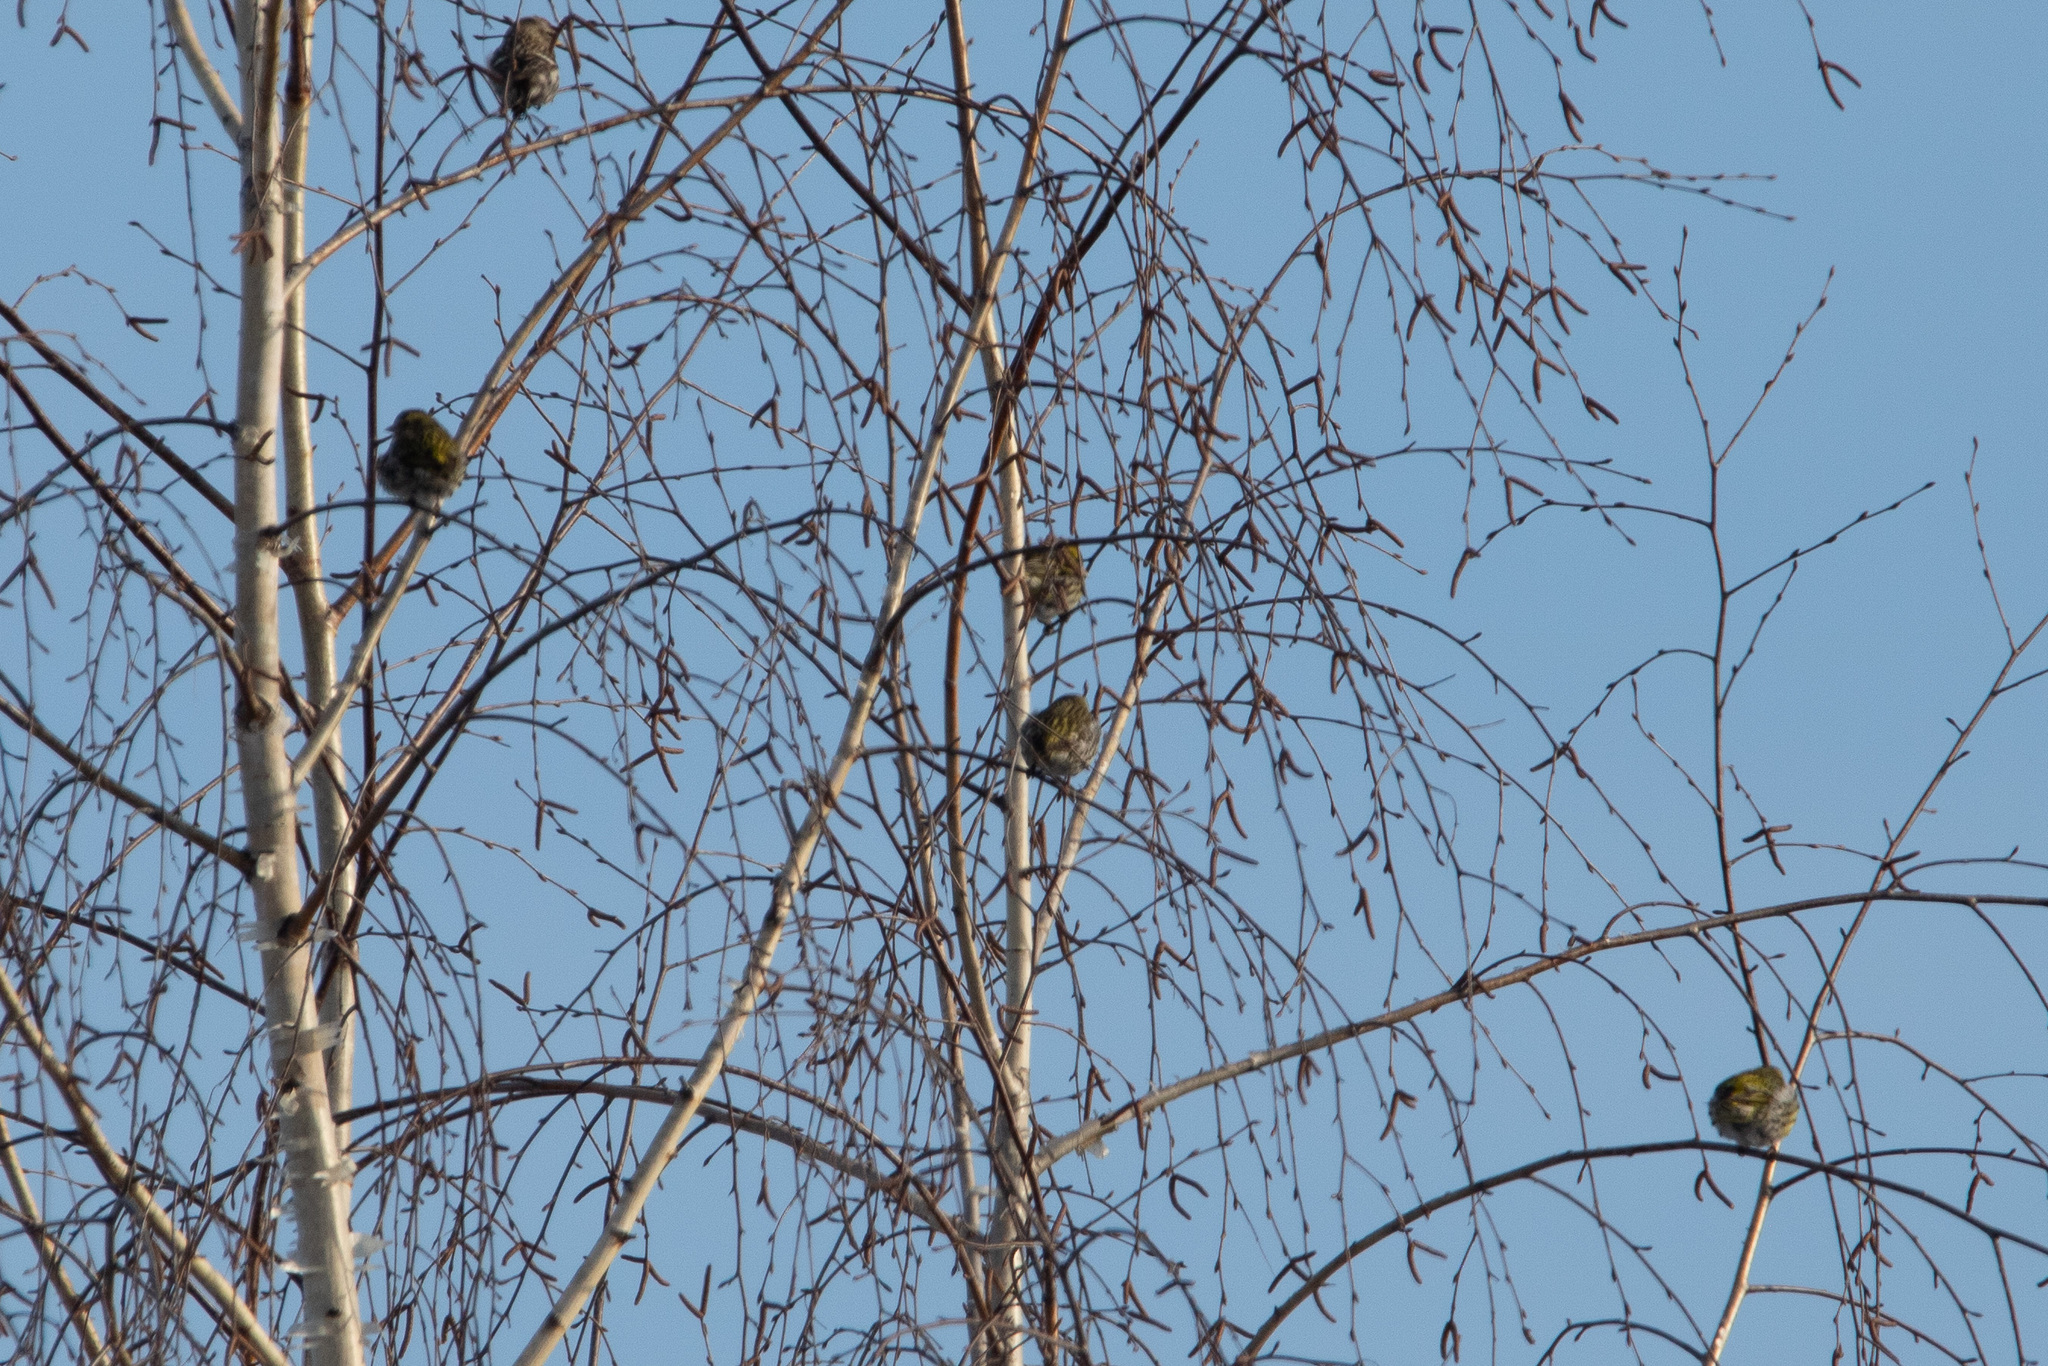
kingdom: Animalia
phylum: Chordata
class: Aves
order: Passeriformes
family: Fringillidae
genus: Spinus
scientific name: Spinus spinus
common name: Eurasian siskin
